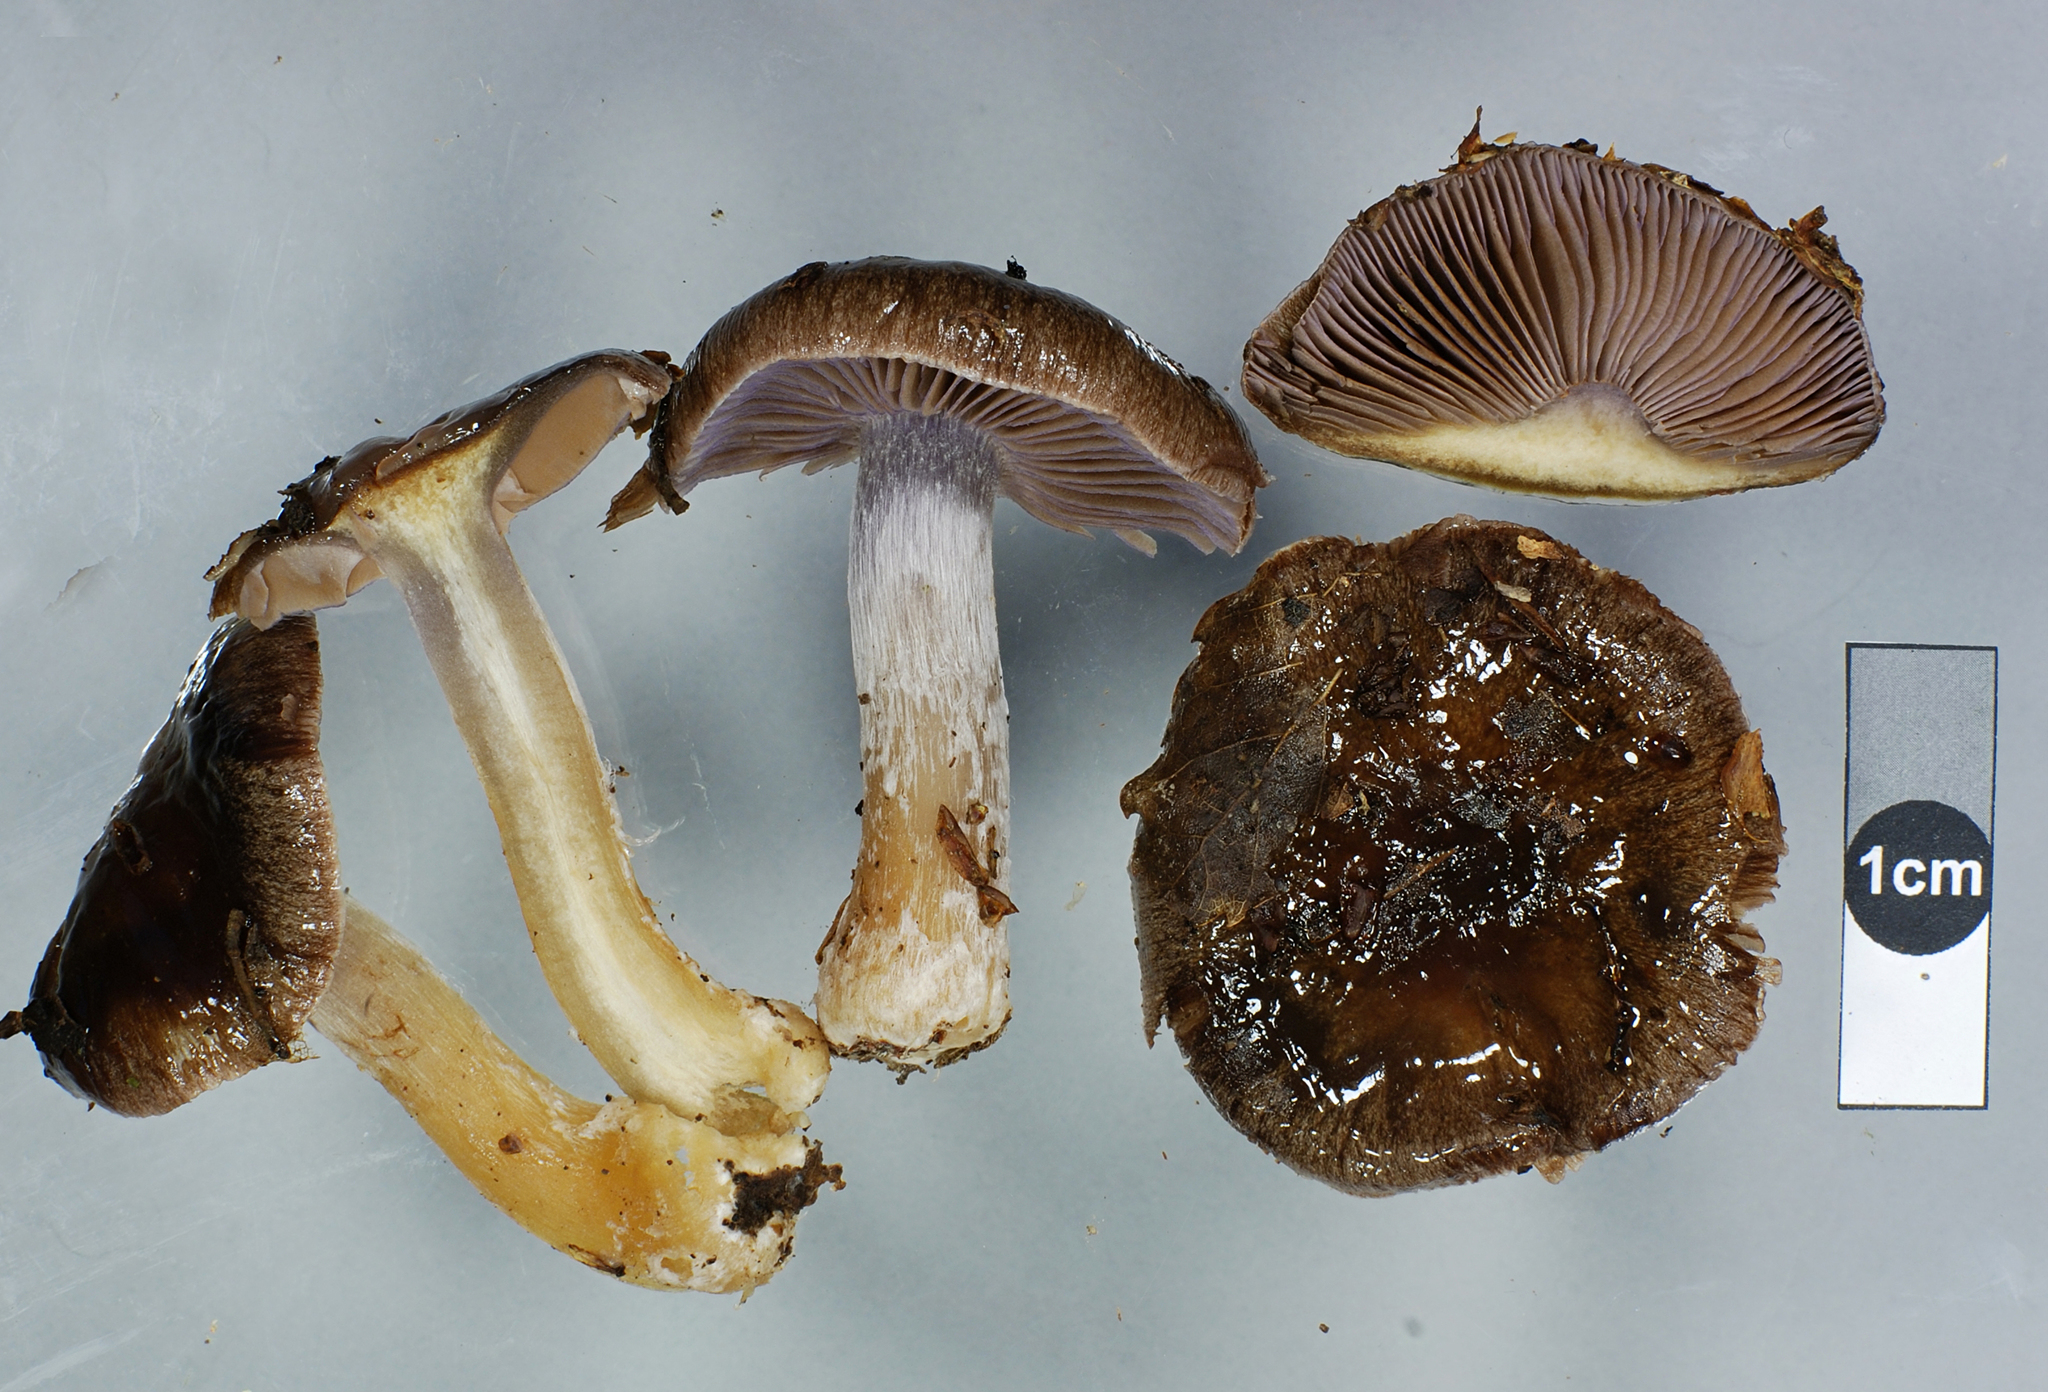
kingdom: Fungi
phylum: Basidiomycota
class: Agaricomycetes
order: Agaricales
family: Cortinariaceae
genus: Cortinarius
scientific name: Cortinarius gymnocephalus
